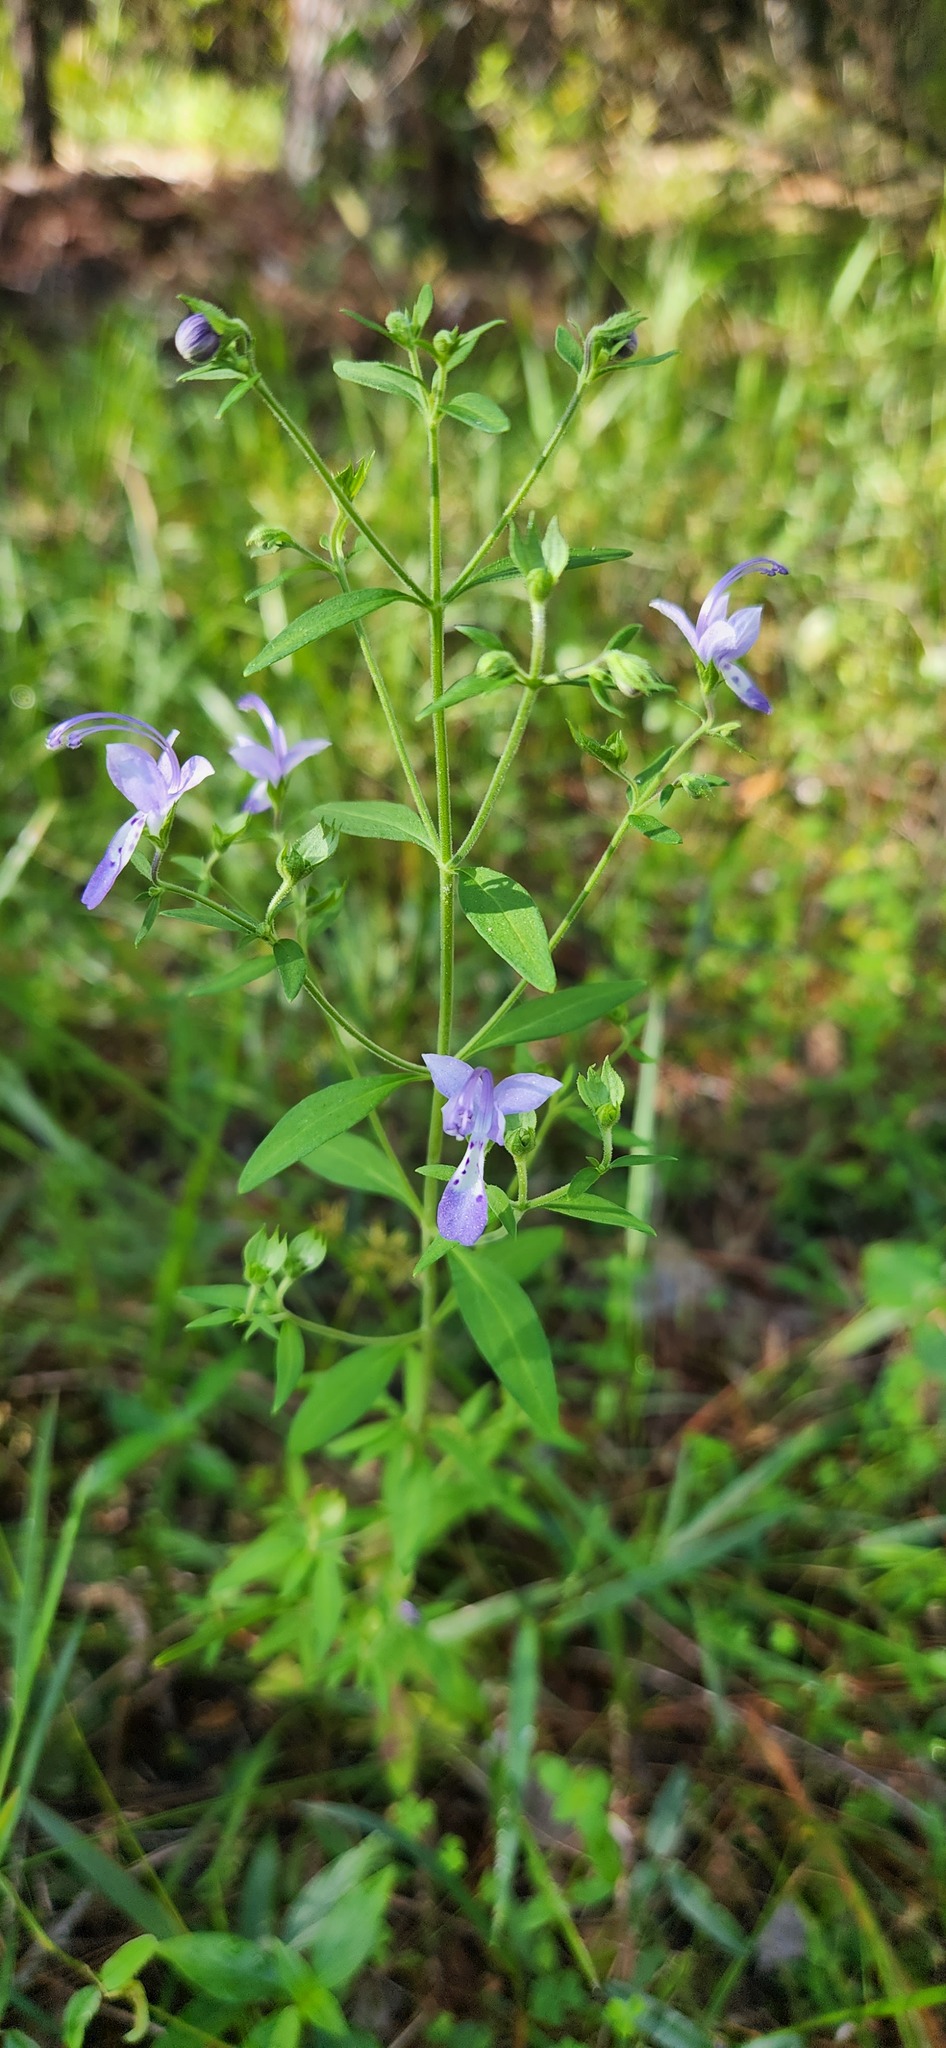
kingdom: Plantae
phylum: Tracheophyta
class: Magnoliopsida
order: Lamiales
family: Lamiaceae
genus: Trichostema
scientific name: Trichostema dichotomum
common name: Bastard pennyroyal
